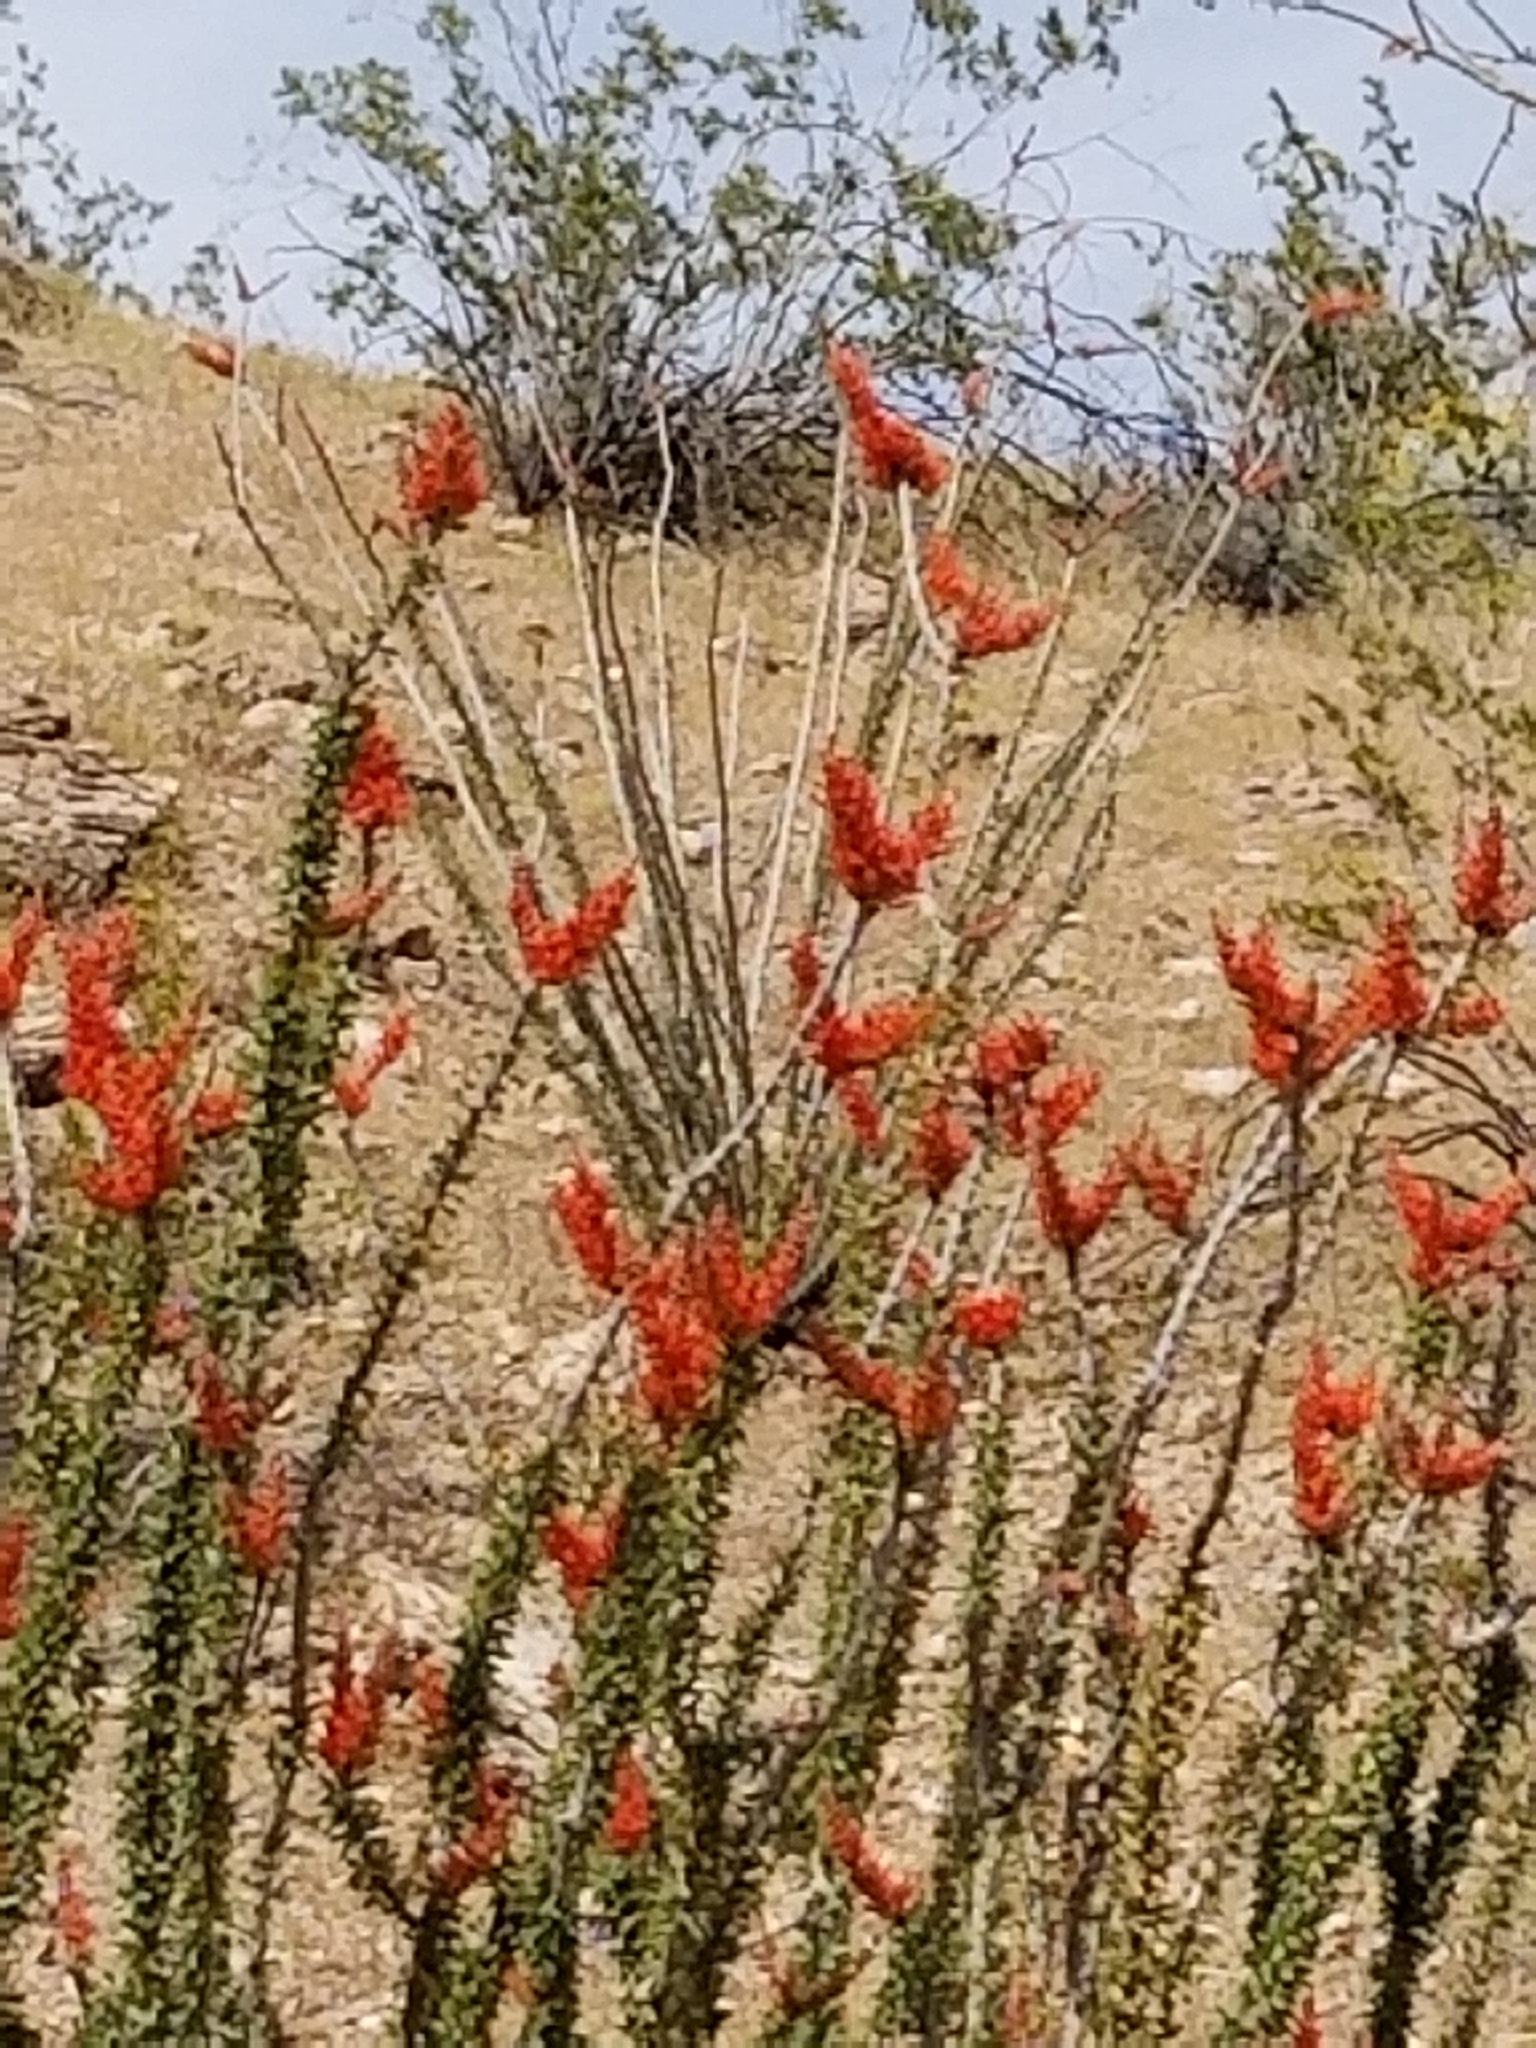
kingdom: Plantae
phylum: Tracheophyta
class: Magnoliopsida
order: Ericales
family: Fouquieriaceae
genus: Fouquieria
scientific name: Fouquieria splendens
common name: Vine-cactus
